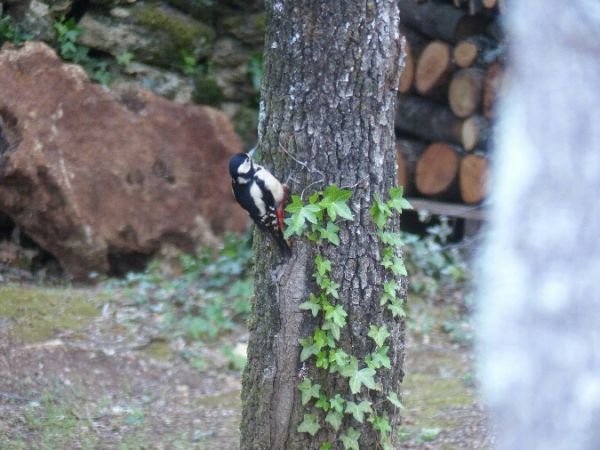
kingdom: Animalia
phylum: Chordata
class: Aves
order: Piciformes
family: Picidae
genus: Dendrocopos
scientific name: Dendrocopos major
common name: Great spotted woodpecker
